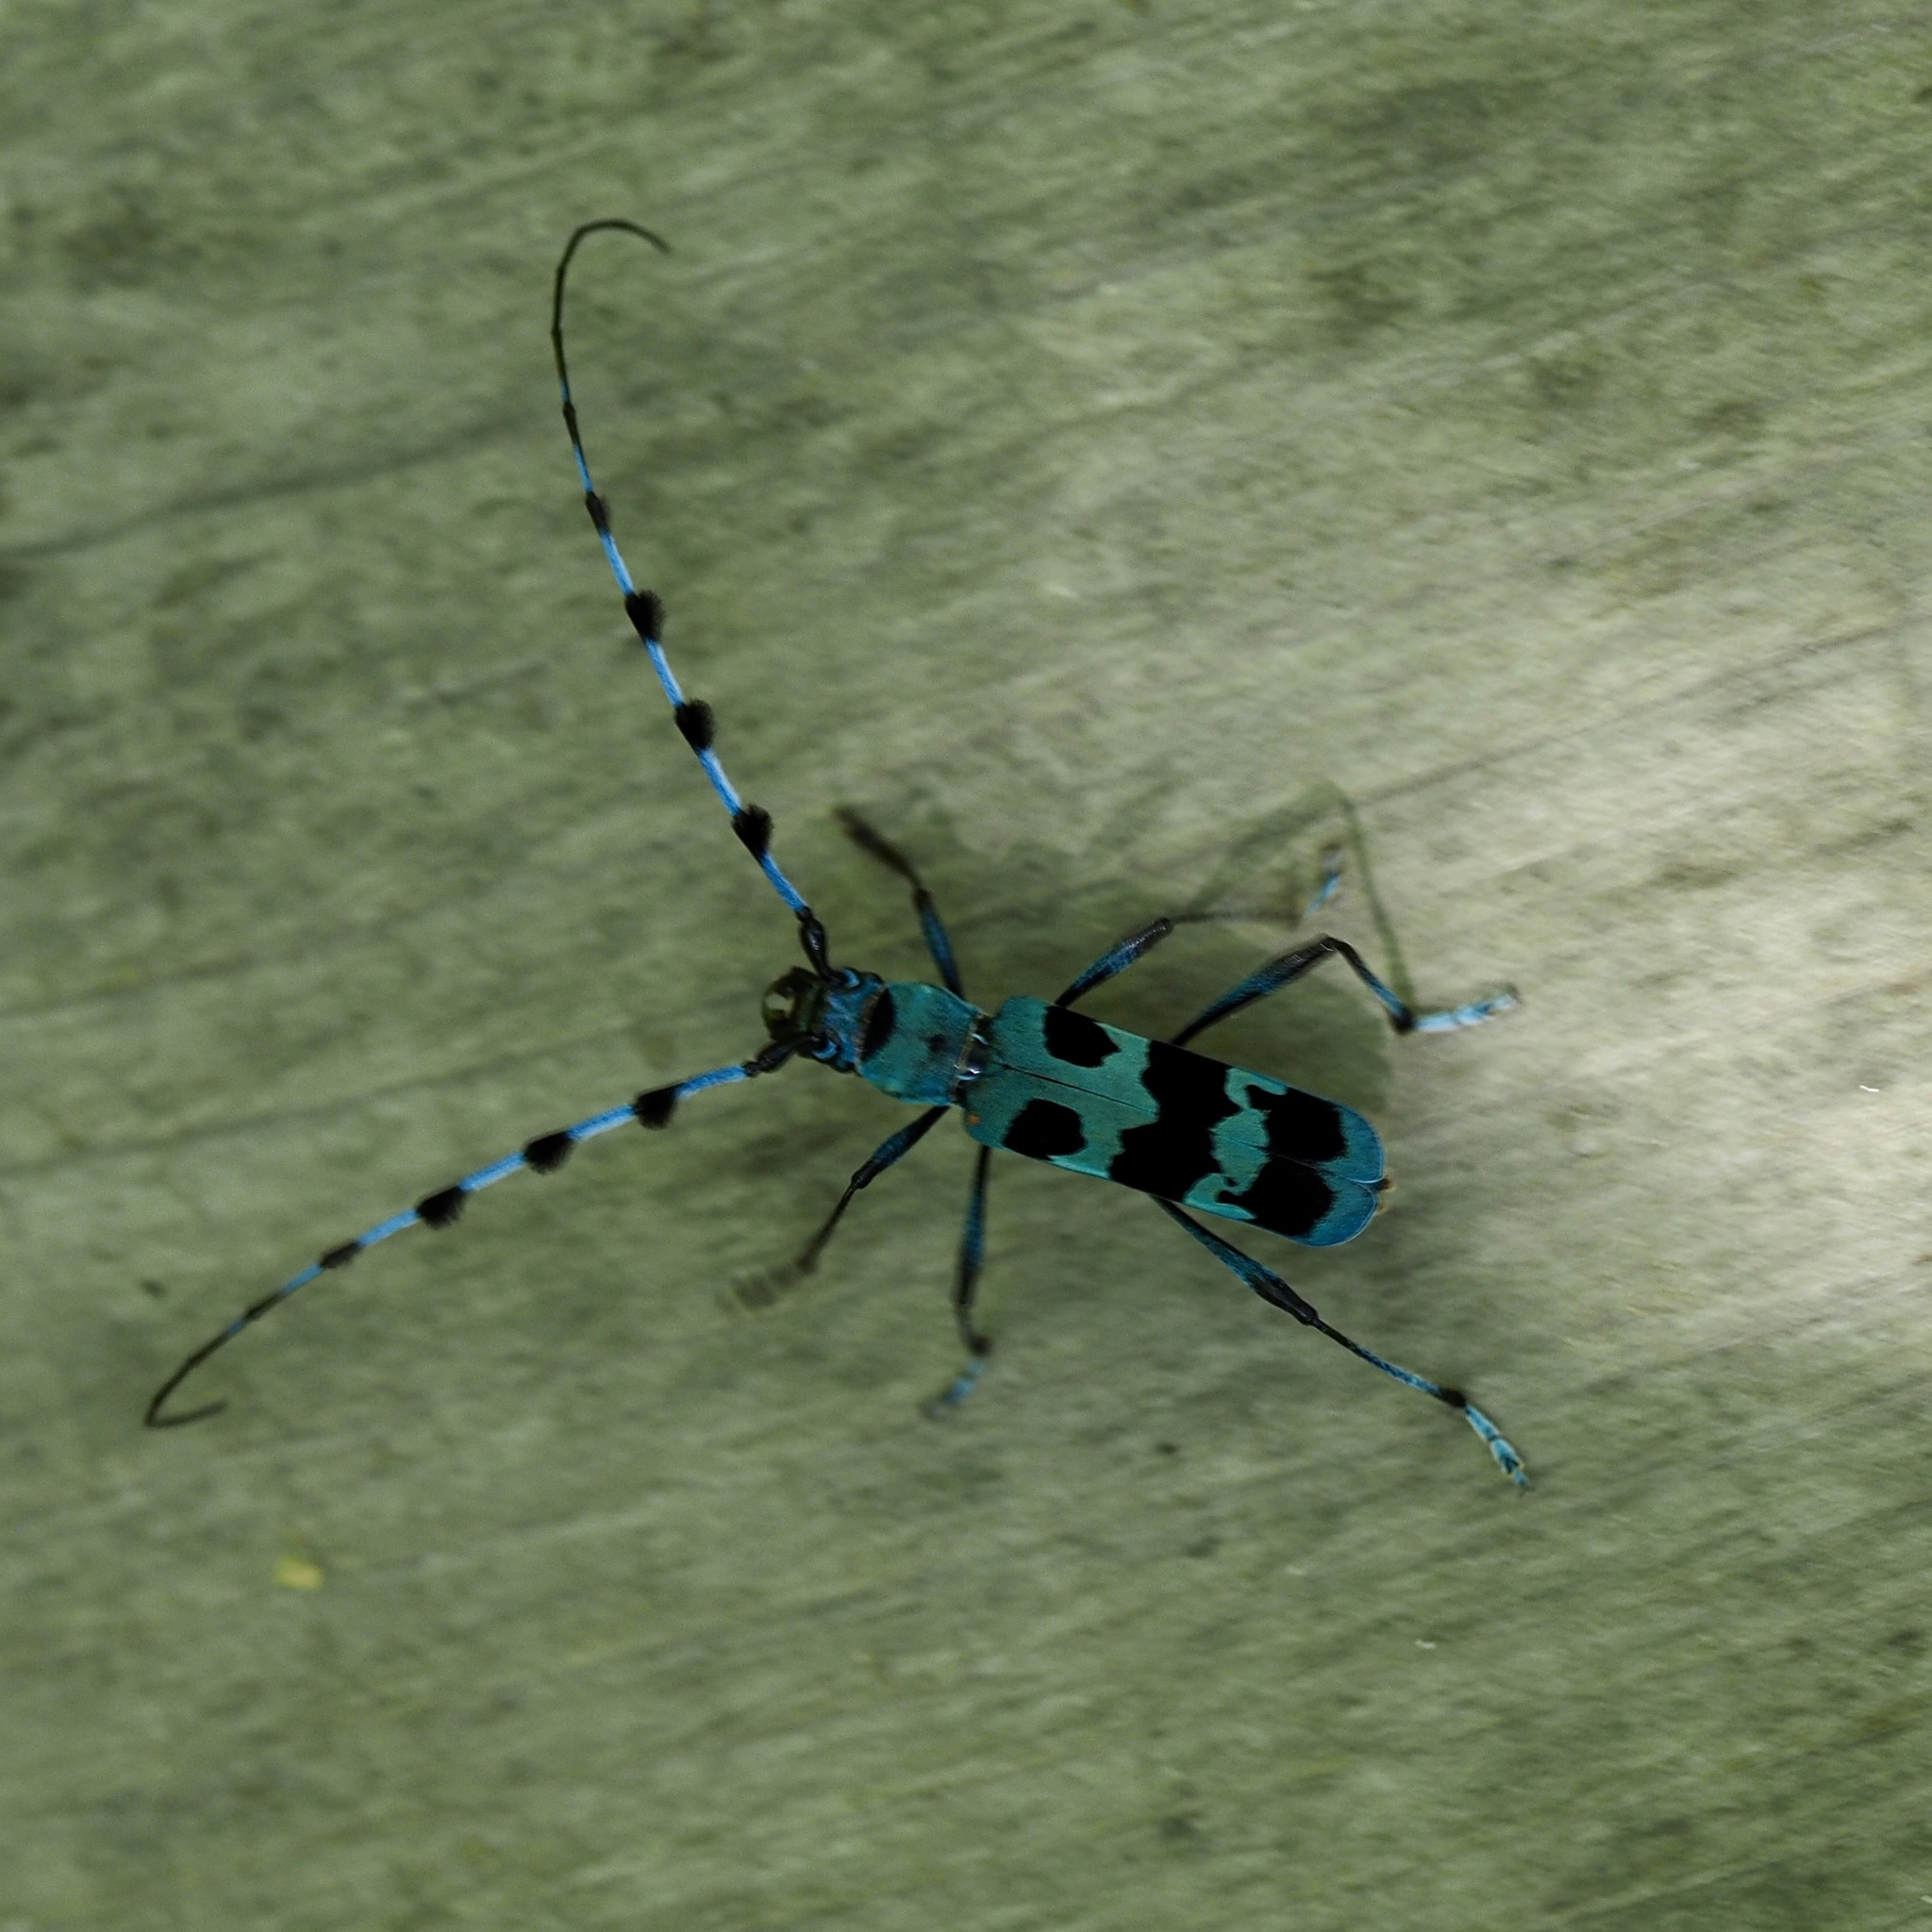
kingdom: Animalia
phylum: Arthropoda
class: Insecta
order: Coleoptera
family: Cerambycidae
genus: Rosalia
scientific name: Rosalia batesi
